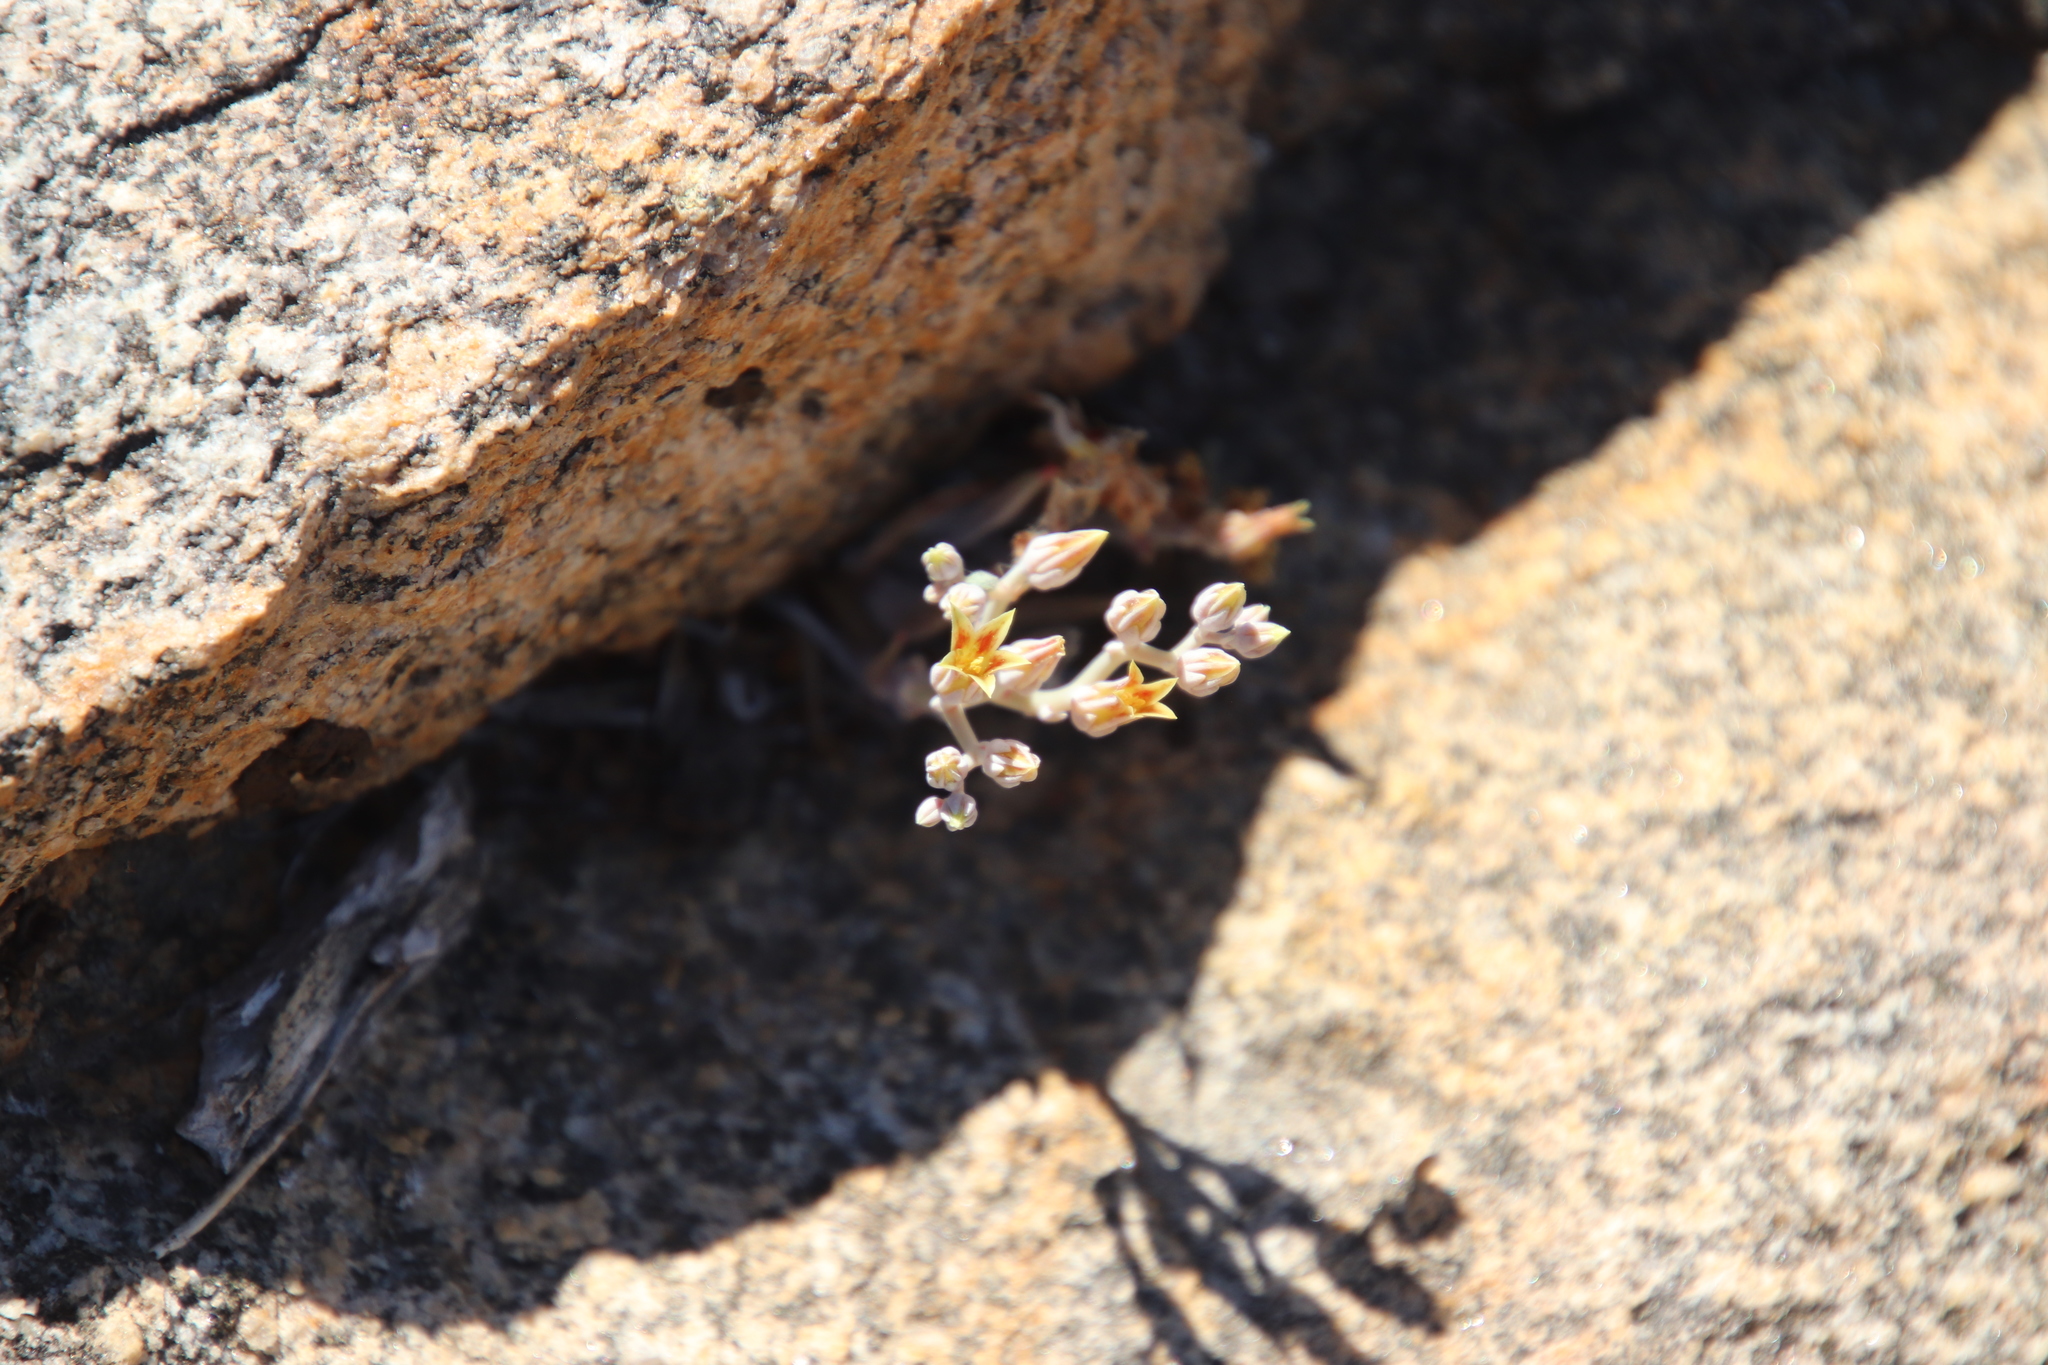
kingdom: Plantae
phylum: Tracheophyta
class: Magnoliopsida
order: Saxifragales
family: Crassulaceae
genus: Dudleya
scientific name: Dudleya abramsii
